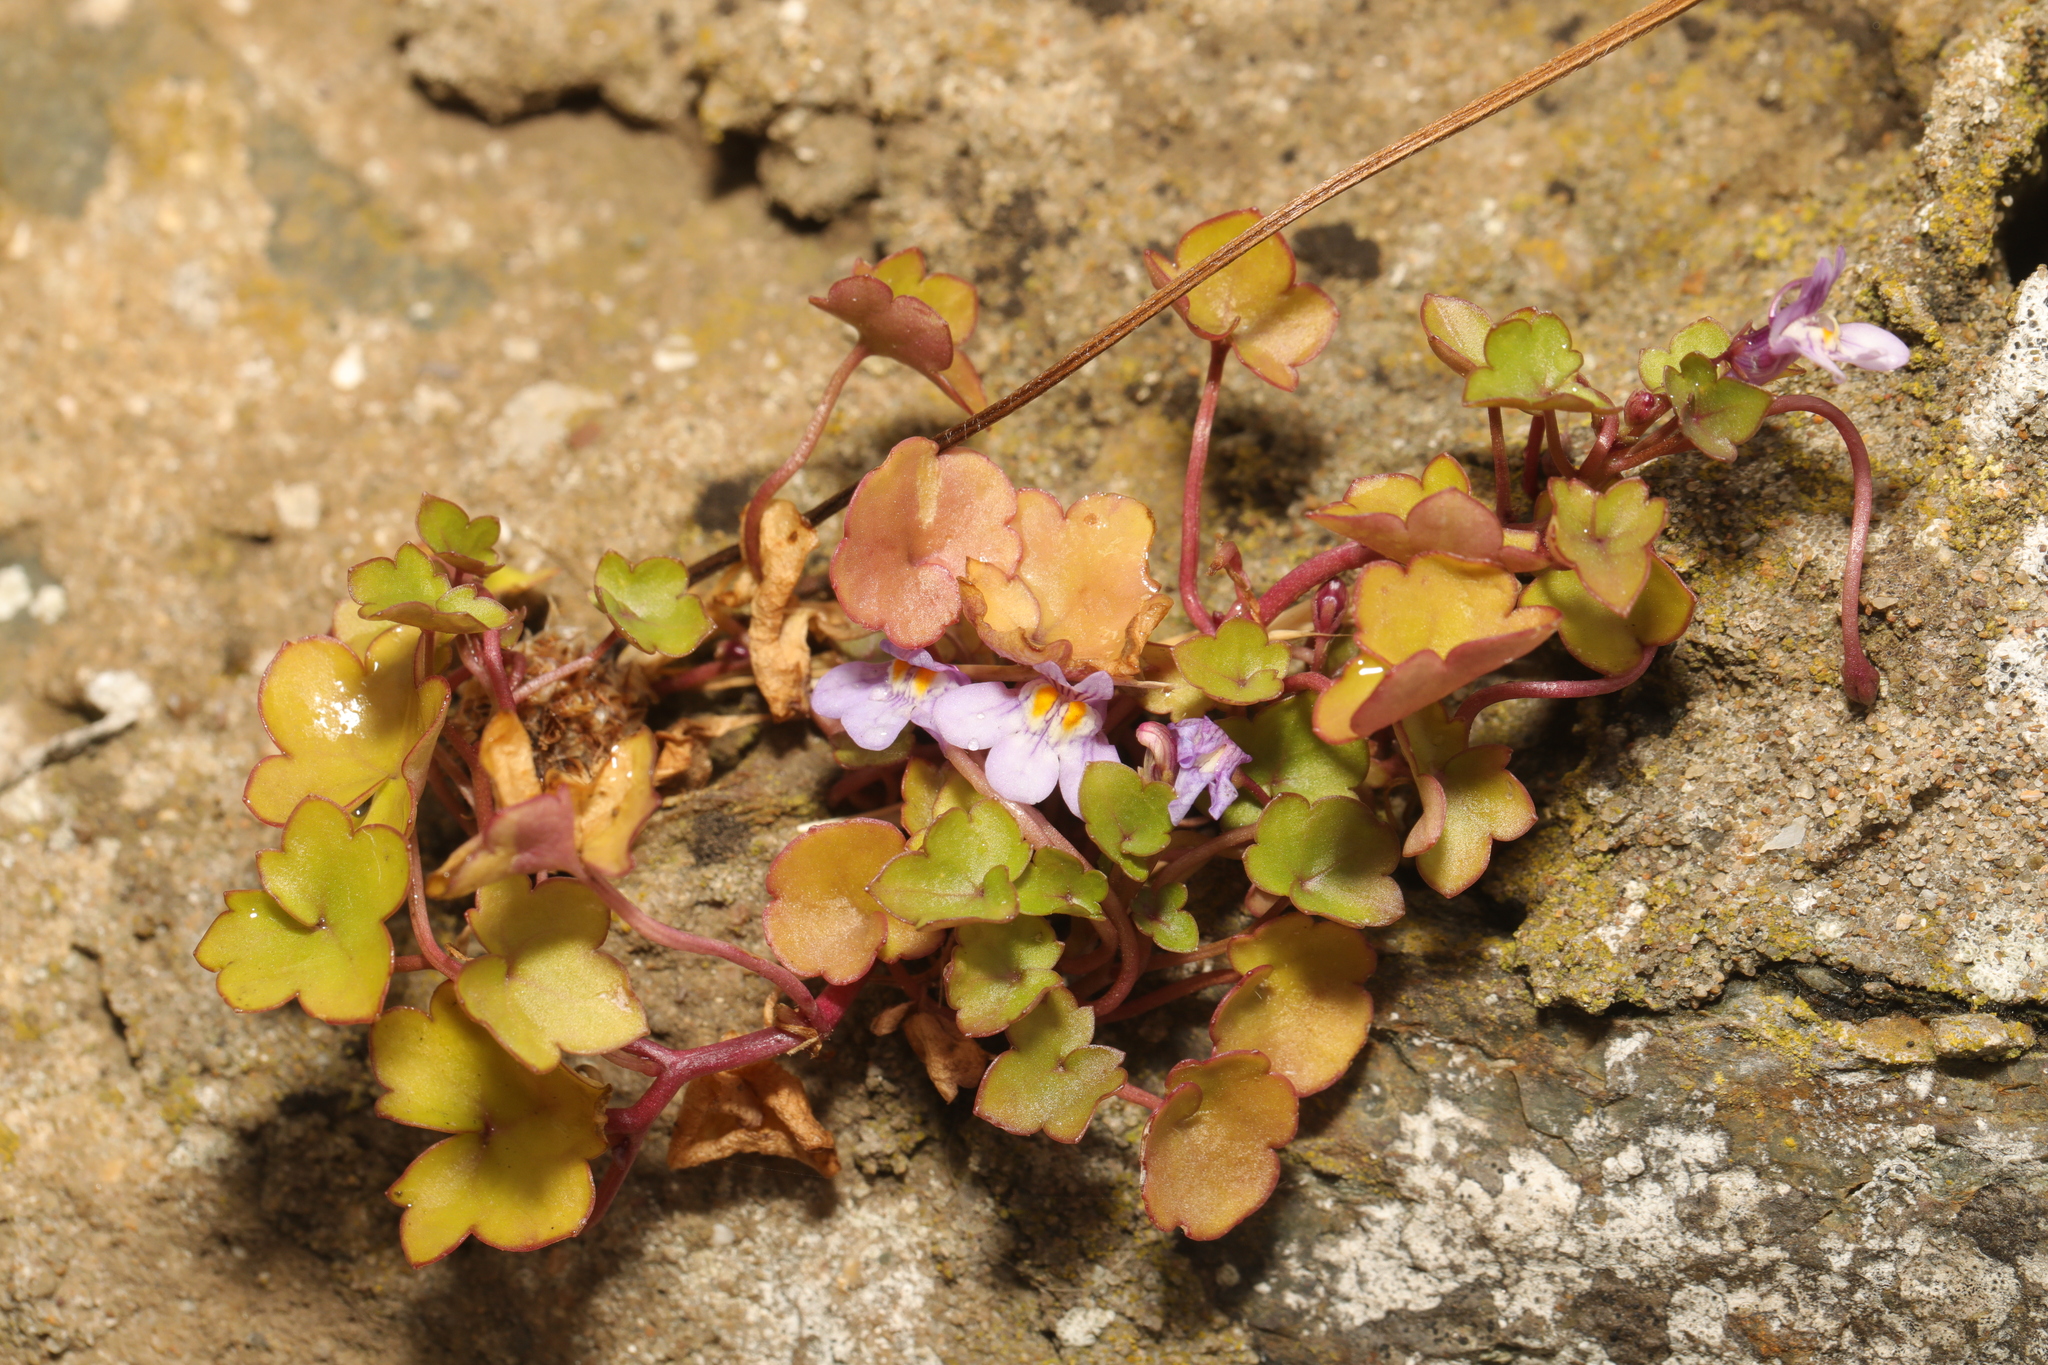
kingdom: Plantae
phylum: Tracheophyta
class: Magnoliopsida
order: Lamiales
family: Plantaginaceae
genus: Cymbalaria
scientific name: Cymbalaria muralis
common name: Ivy-leaved toadflax
